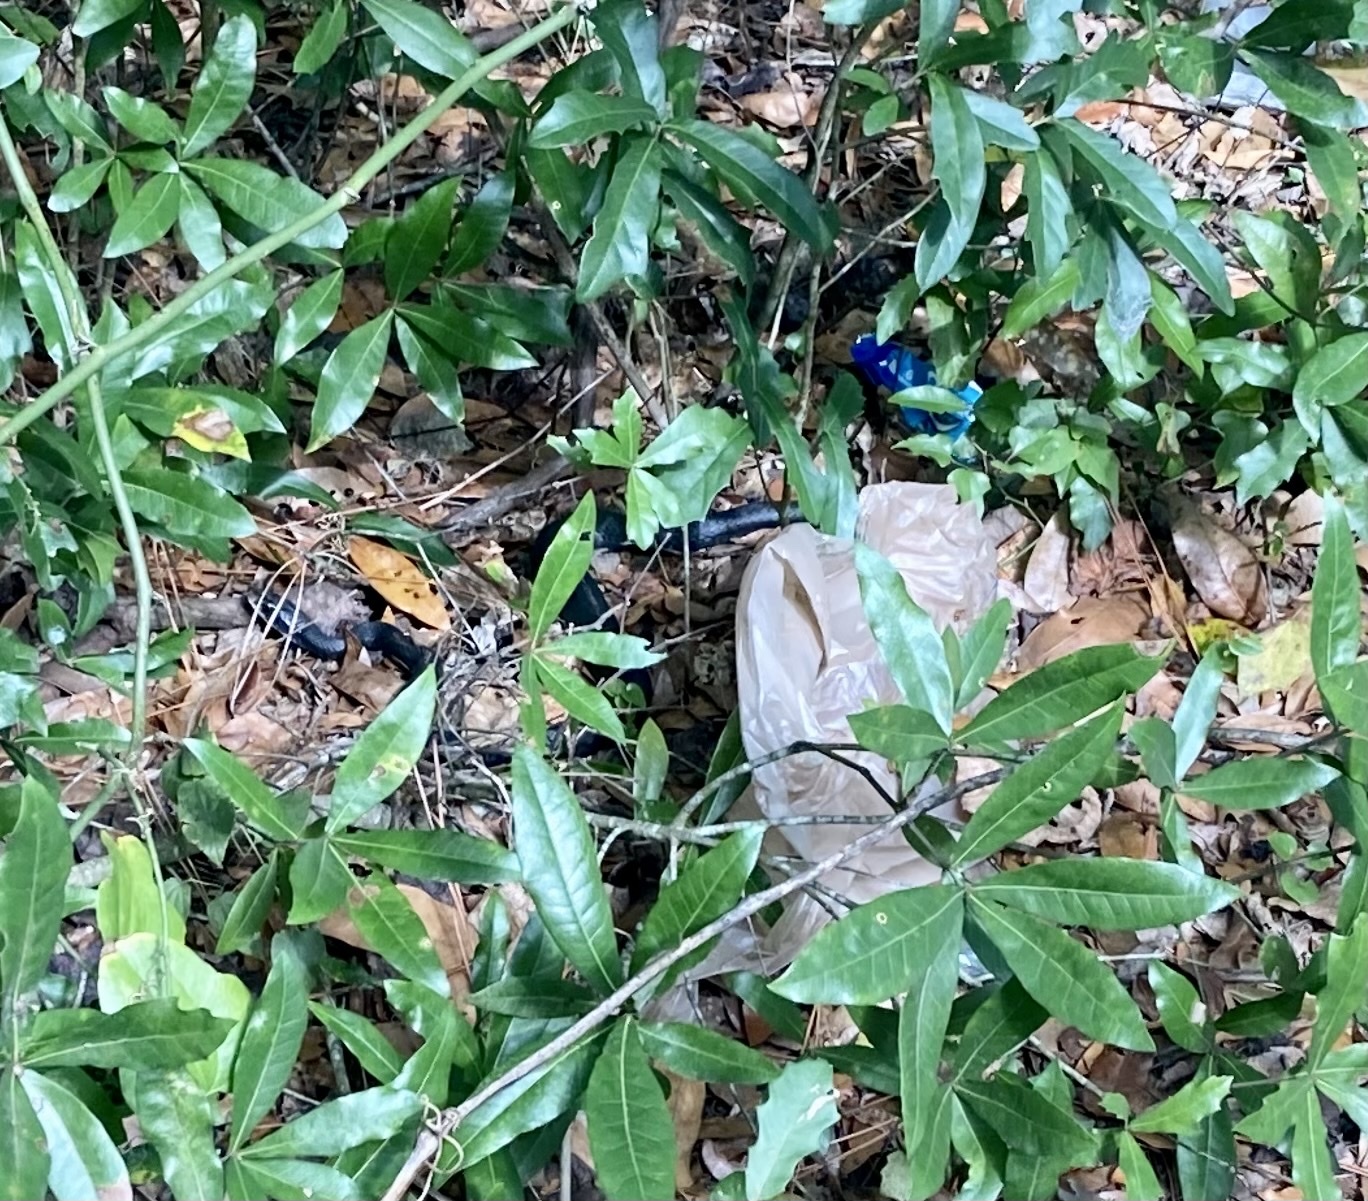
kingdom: Animalia
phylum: Chordata
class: Squamata
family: Colubridae
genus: Coluber
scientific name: Coluber constrictor
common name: Eastern racer
